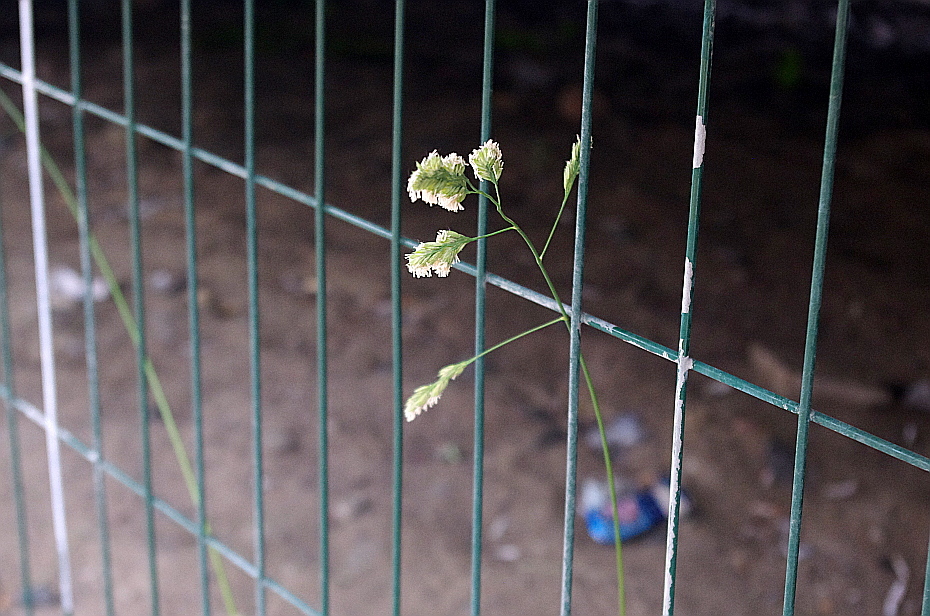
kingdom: Plantae
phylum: Tracheophyta
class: Liliopsida
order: Poales
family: Poaceae
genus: Dactylis
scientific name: Dactylis glomerata
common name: Orchardgrass
